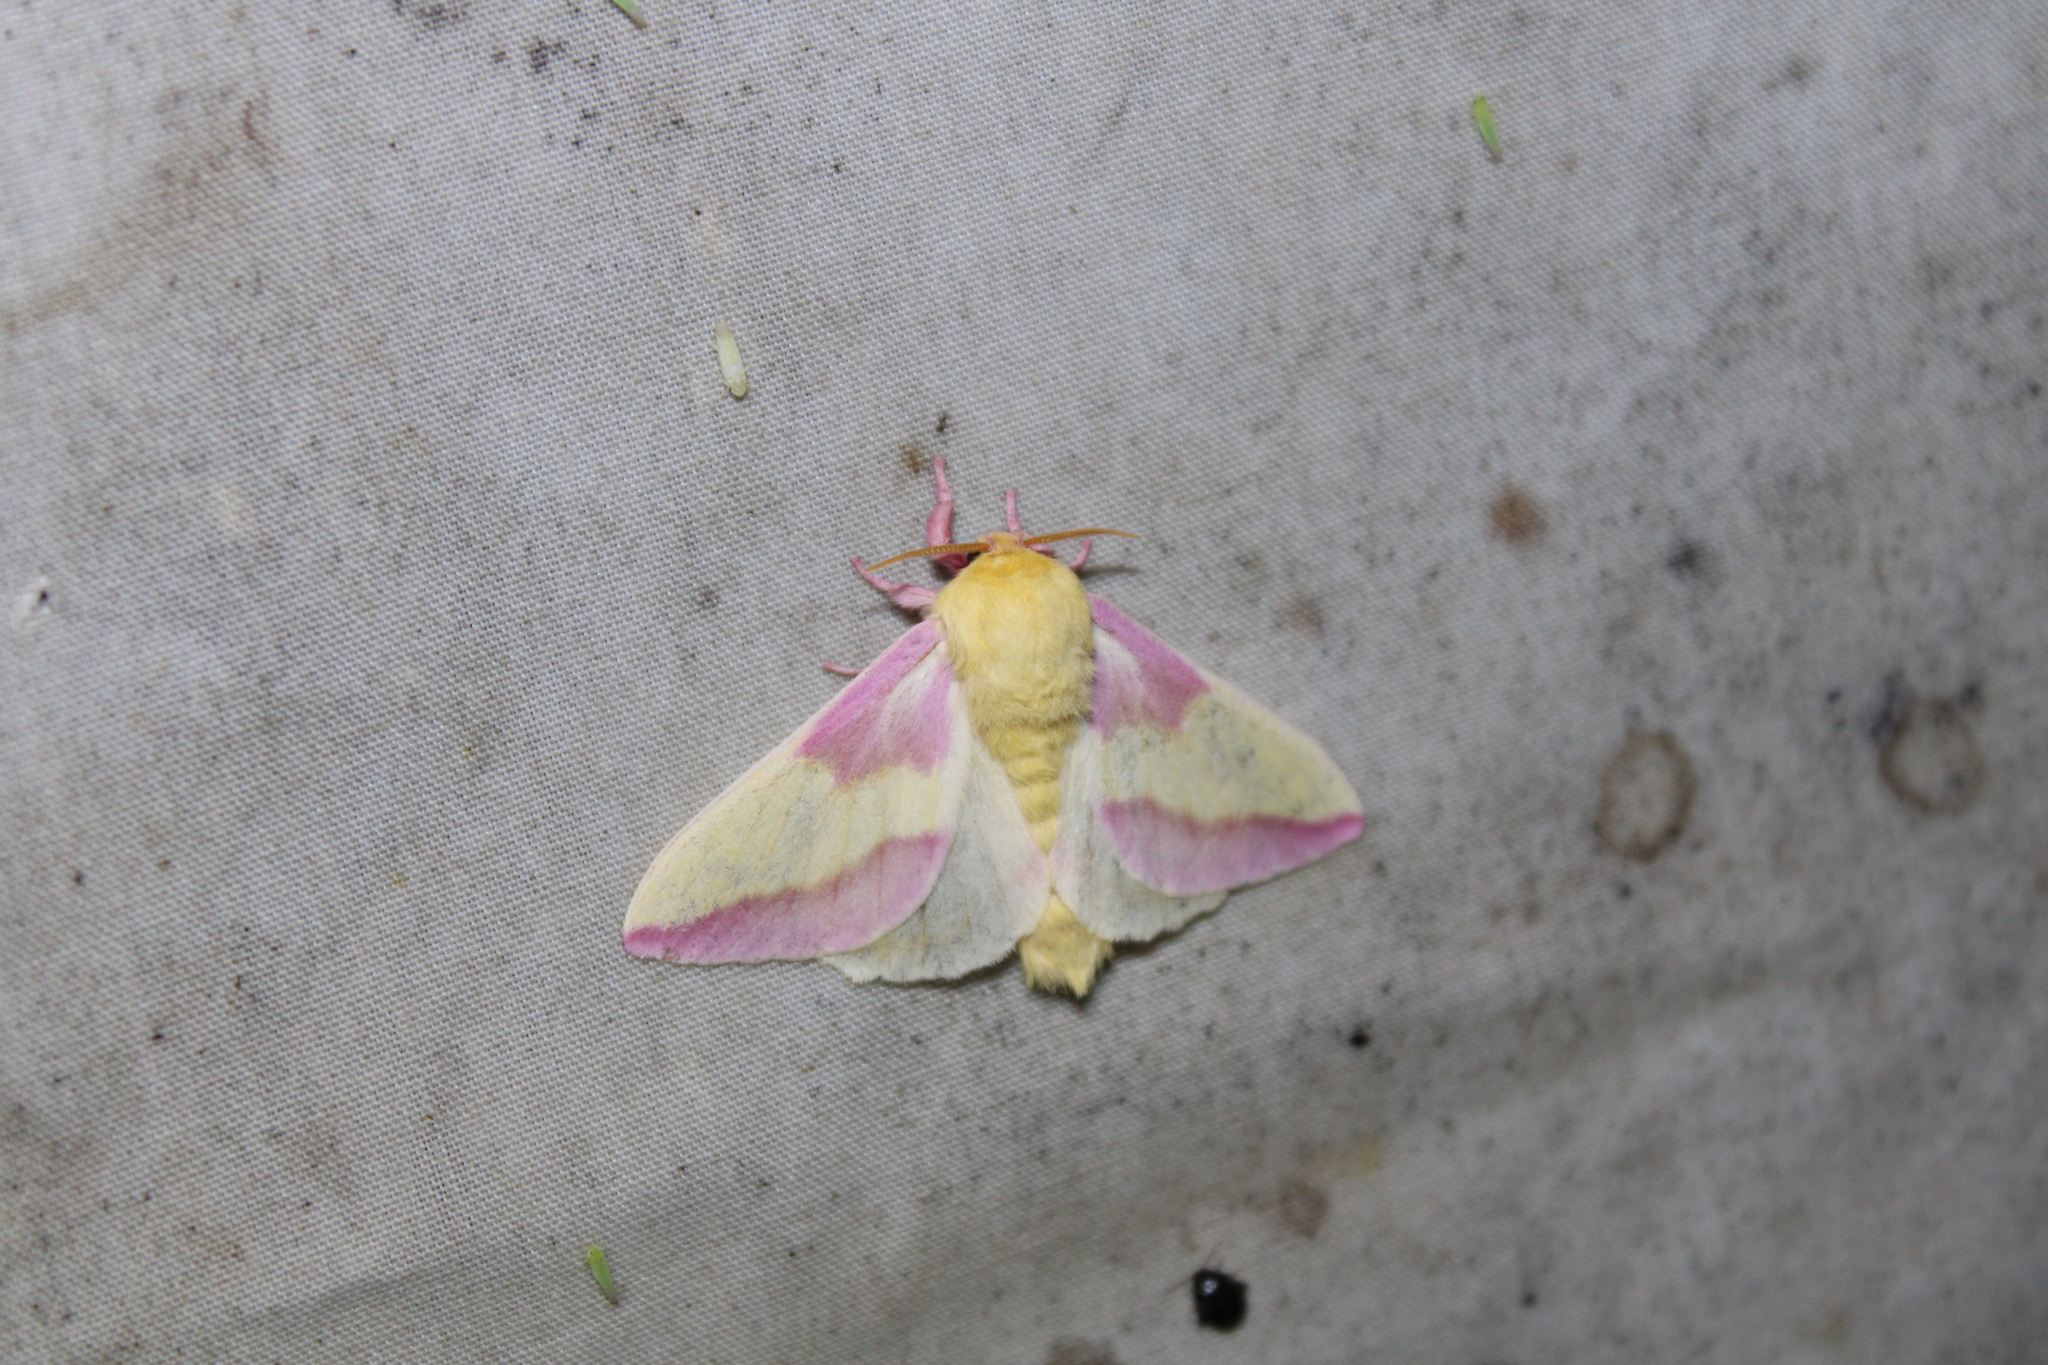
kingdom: Animalia
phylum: Arthropoda
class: Insecta
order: Lepidoptera
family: Saturniidae
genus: Dryocampa
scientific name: Dryocampa rubicunda
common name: Rosy maple moth
